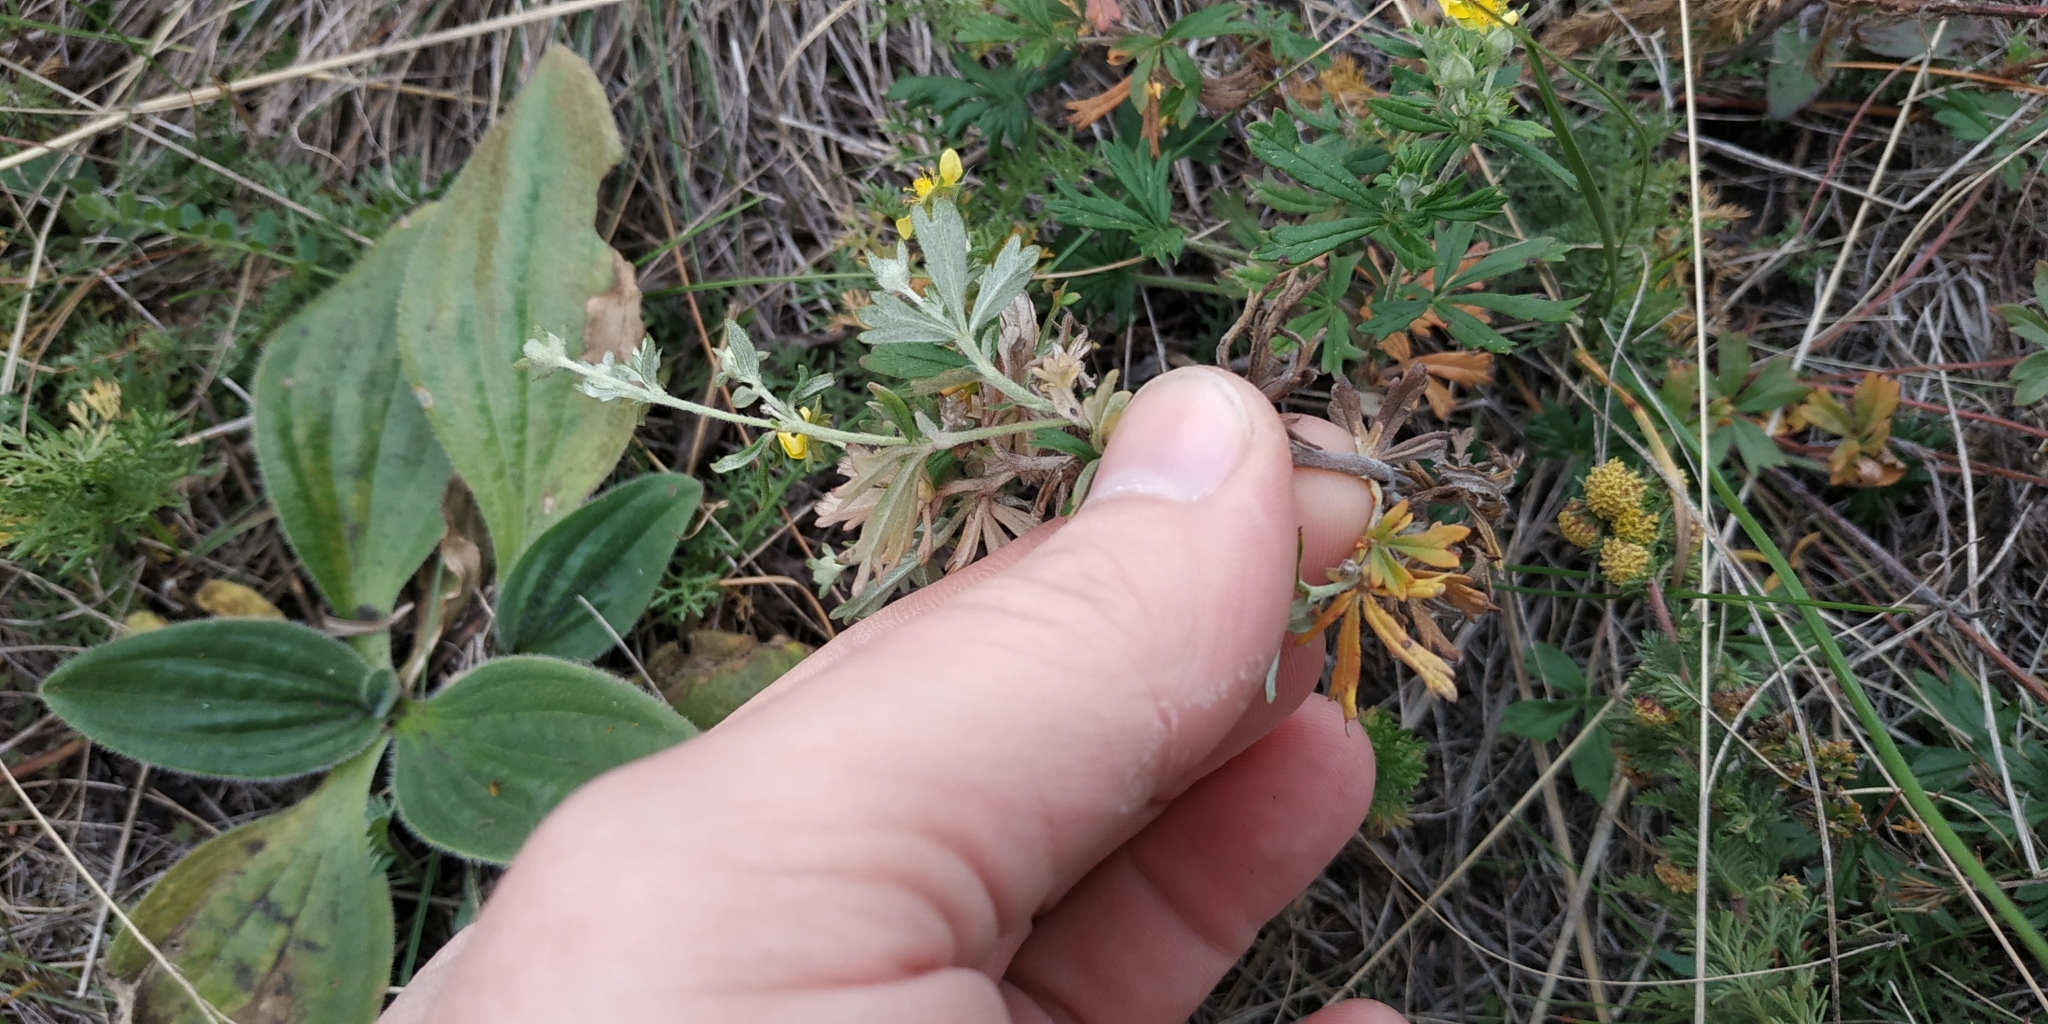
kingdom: Plantae
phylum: Tracheophyta
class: Magnoliopsida
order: Rosales
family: Rosaceae
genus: Potentilla
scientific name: Potentilla argentea
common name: Hoary cinquefoil
